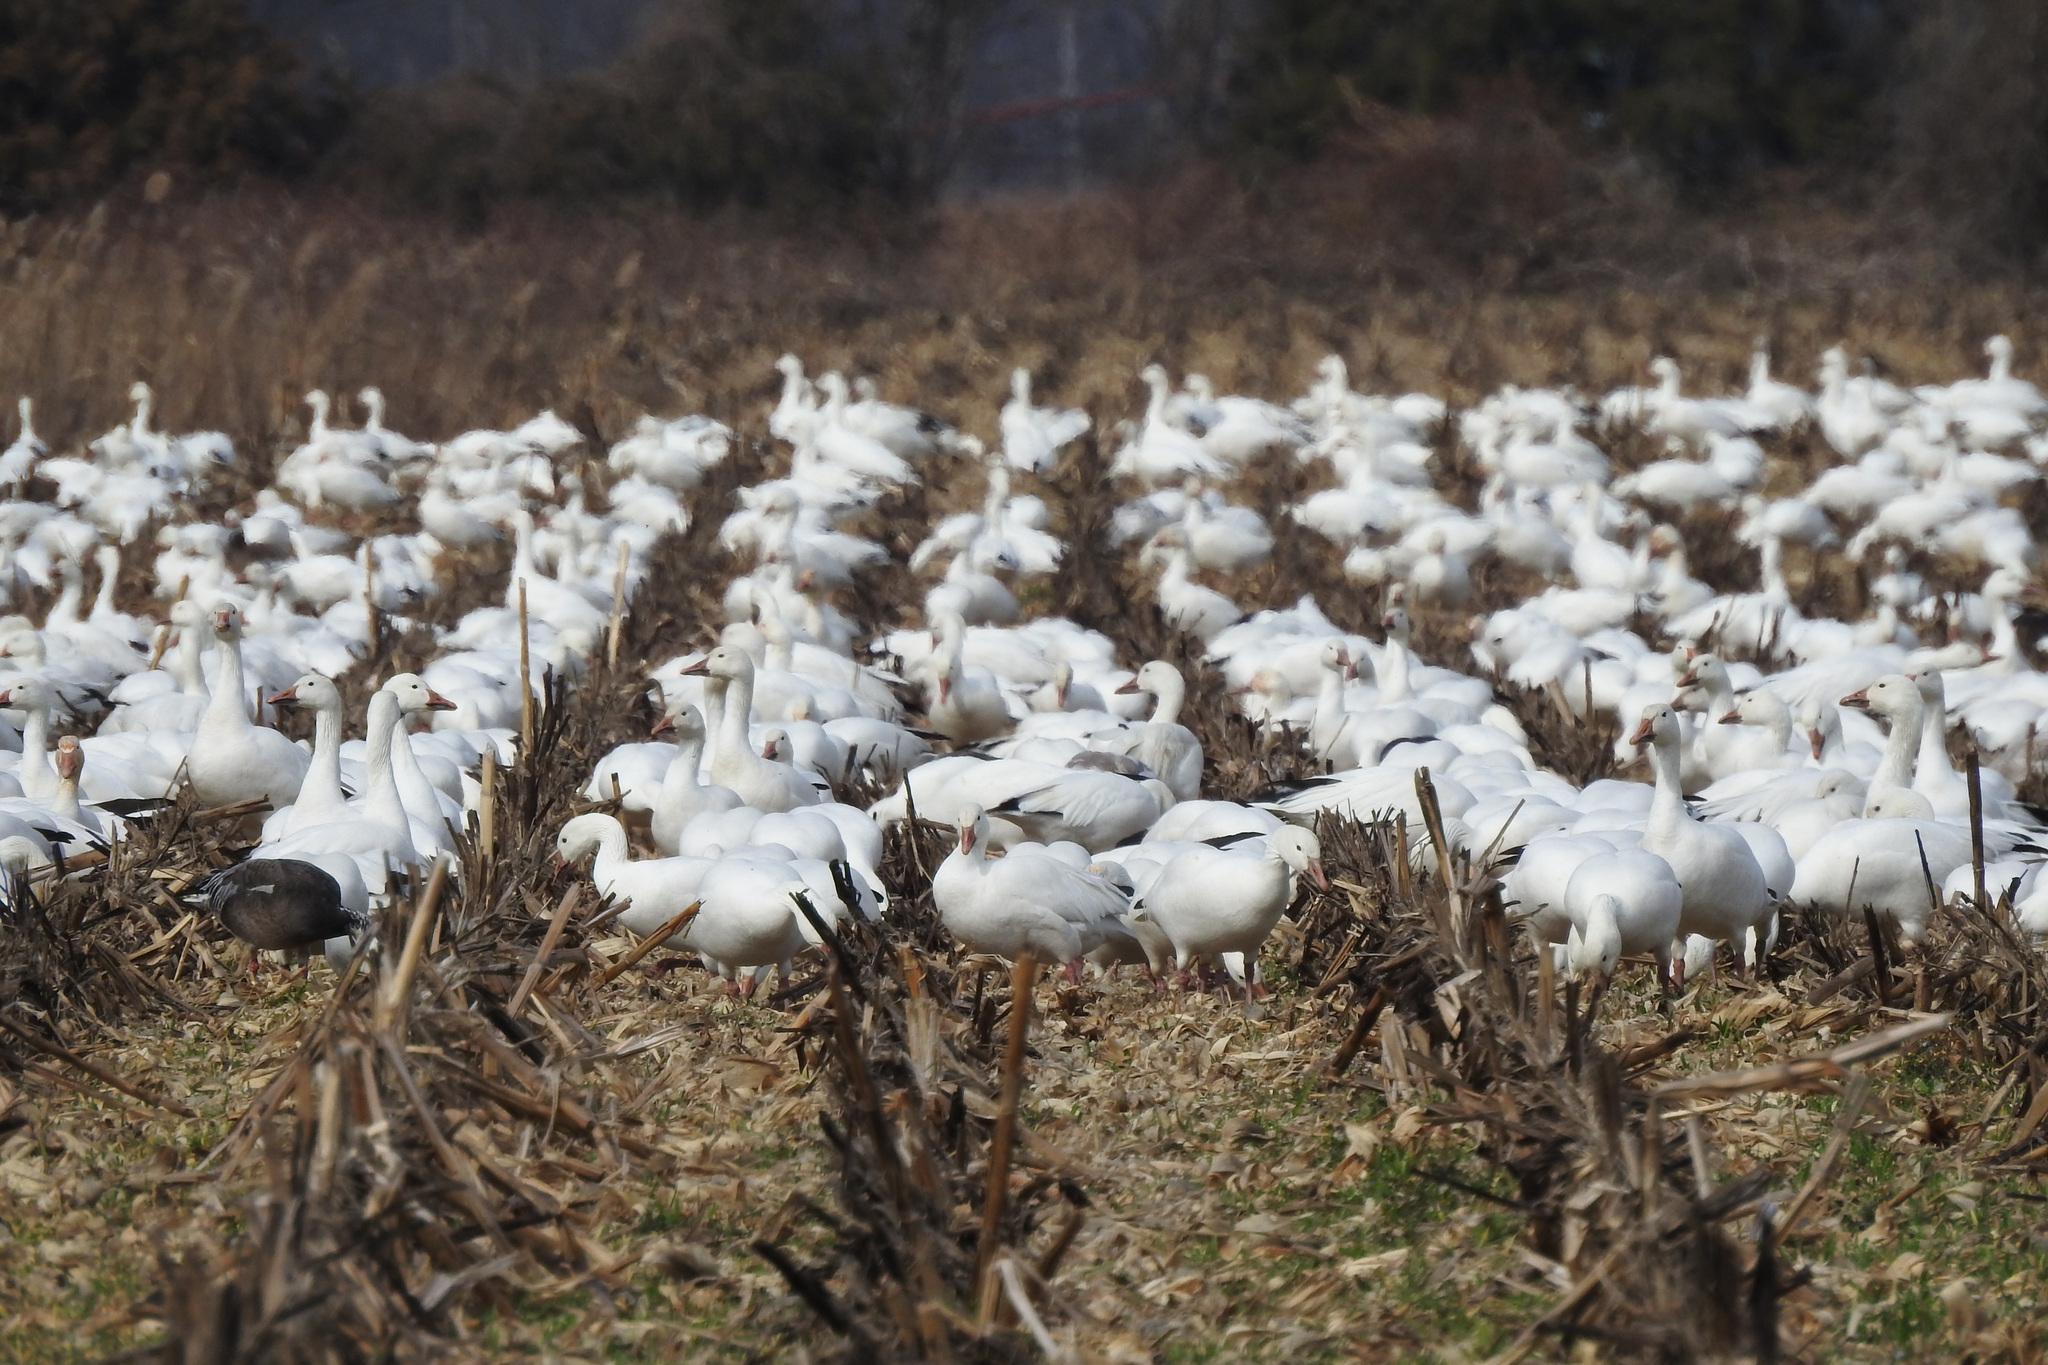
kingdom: Animalia
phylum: Chordata
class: Aves
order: Anseriformes
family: Anatidae
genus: Anser
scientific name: Anser caerulescens
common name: Snow goose
